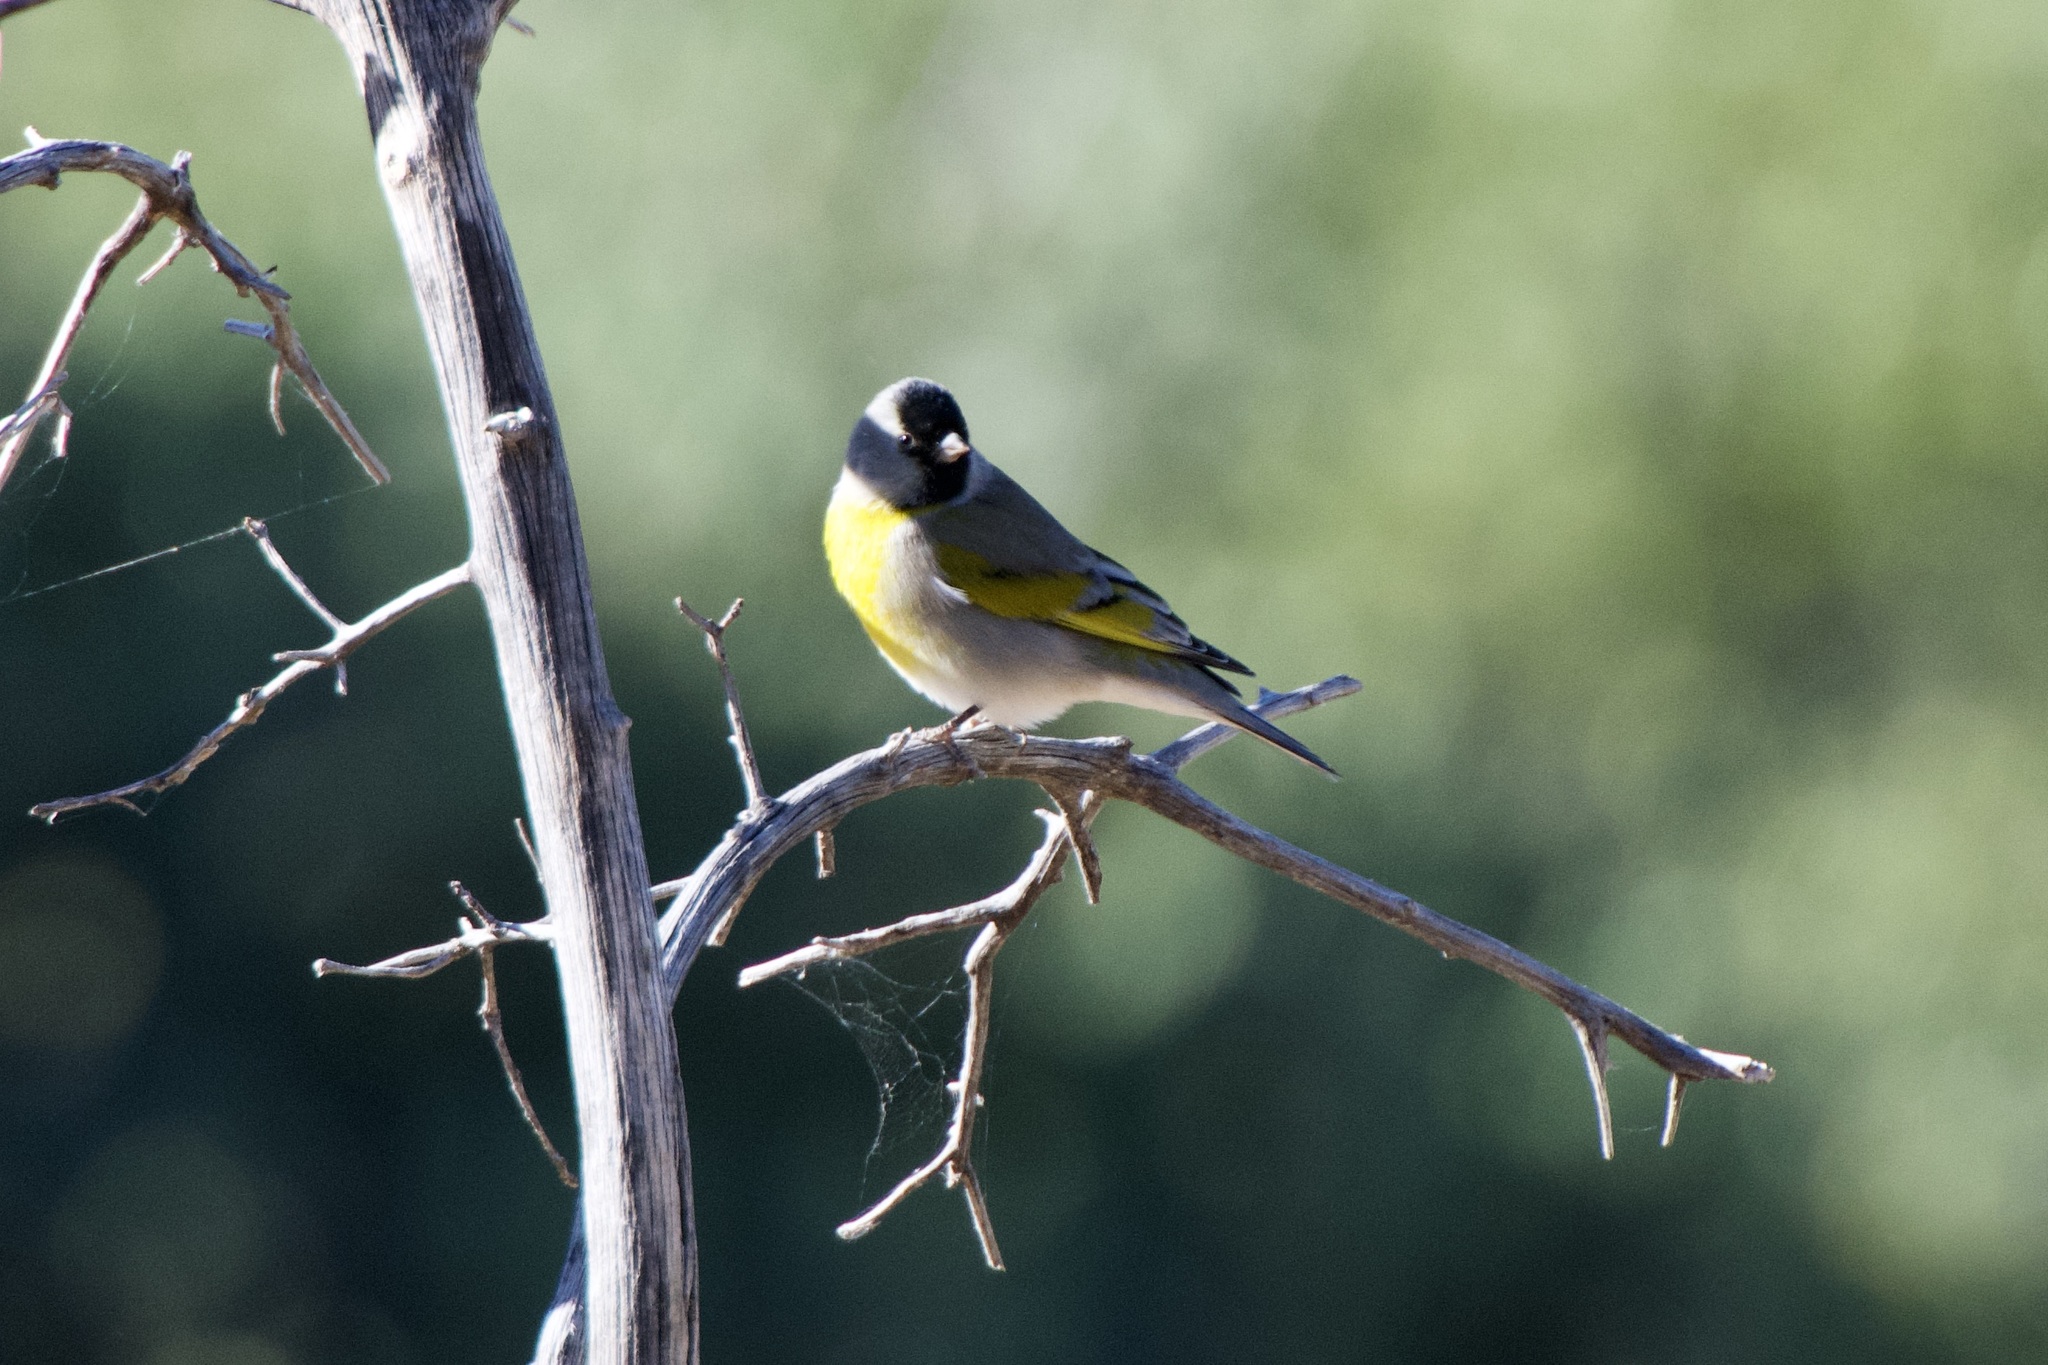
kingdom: Animalia
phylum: Chordata
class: Aves
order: Passeriformes
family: Fringillidae
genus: Spinus
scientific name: Spinus lawrencei
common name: Lawrence's goldfinch
